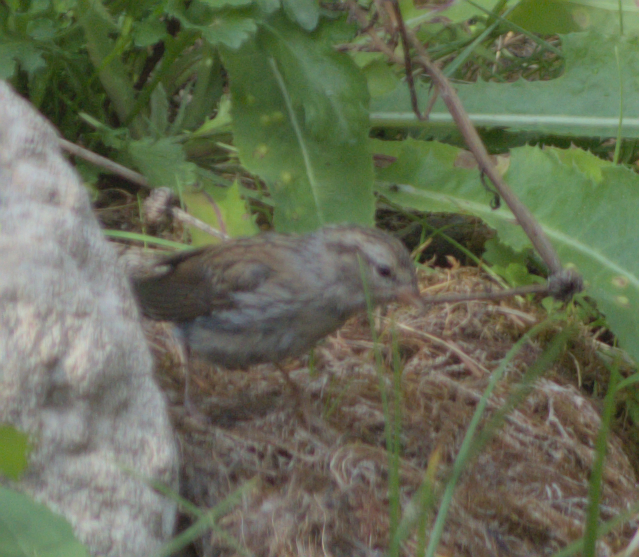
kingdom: Animalia
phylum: Chordata
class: Aves
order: Passeriformes
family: Passerellidae
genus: Spizella
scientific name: Spizella passerina
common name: Chipping sparrow
